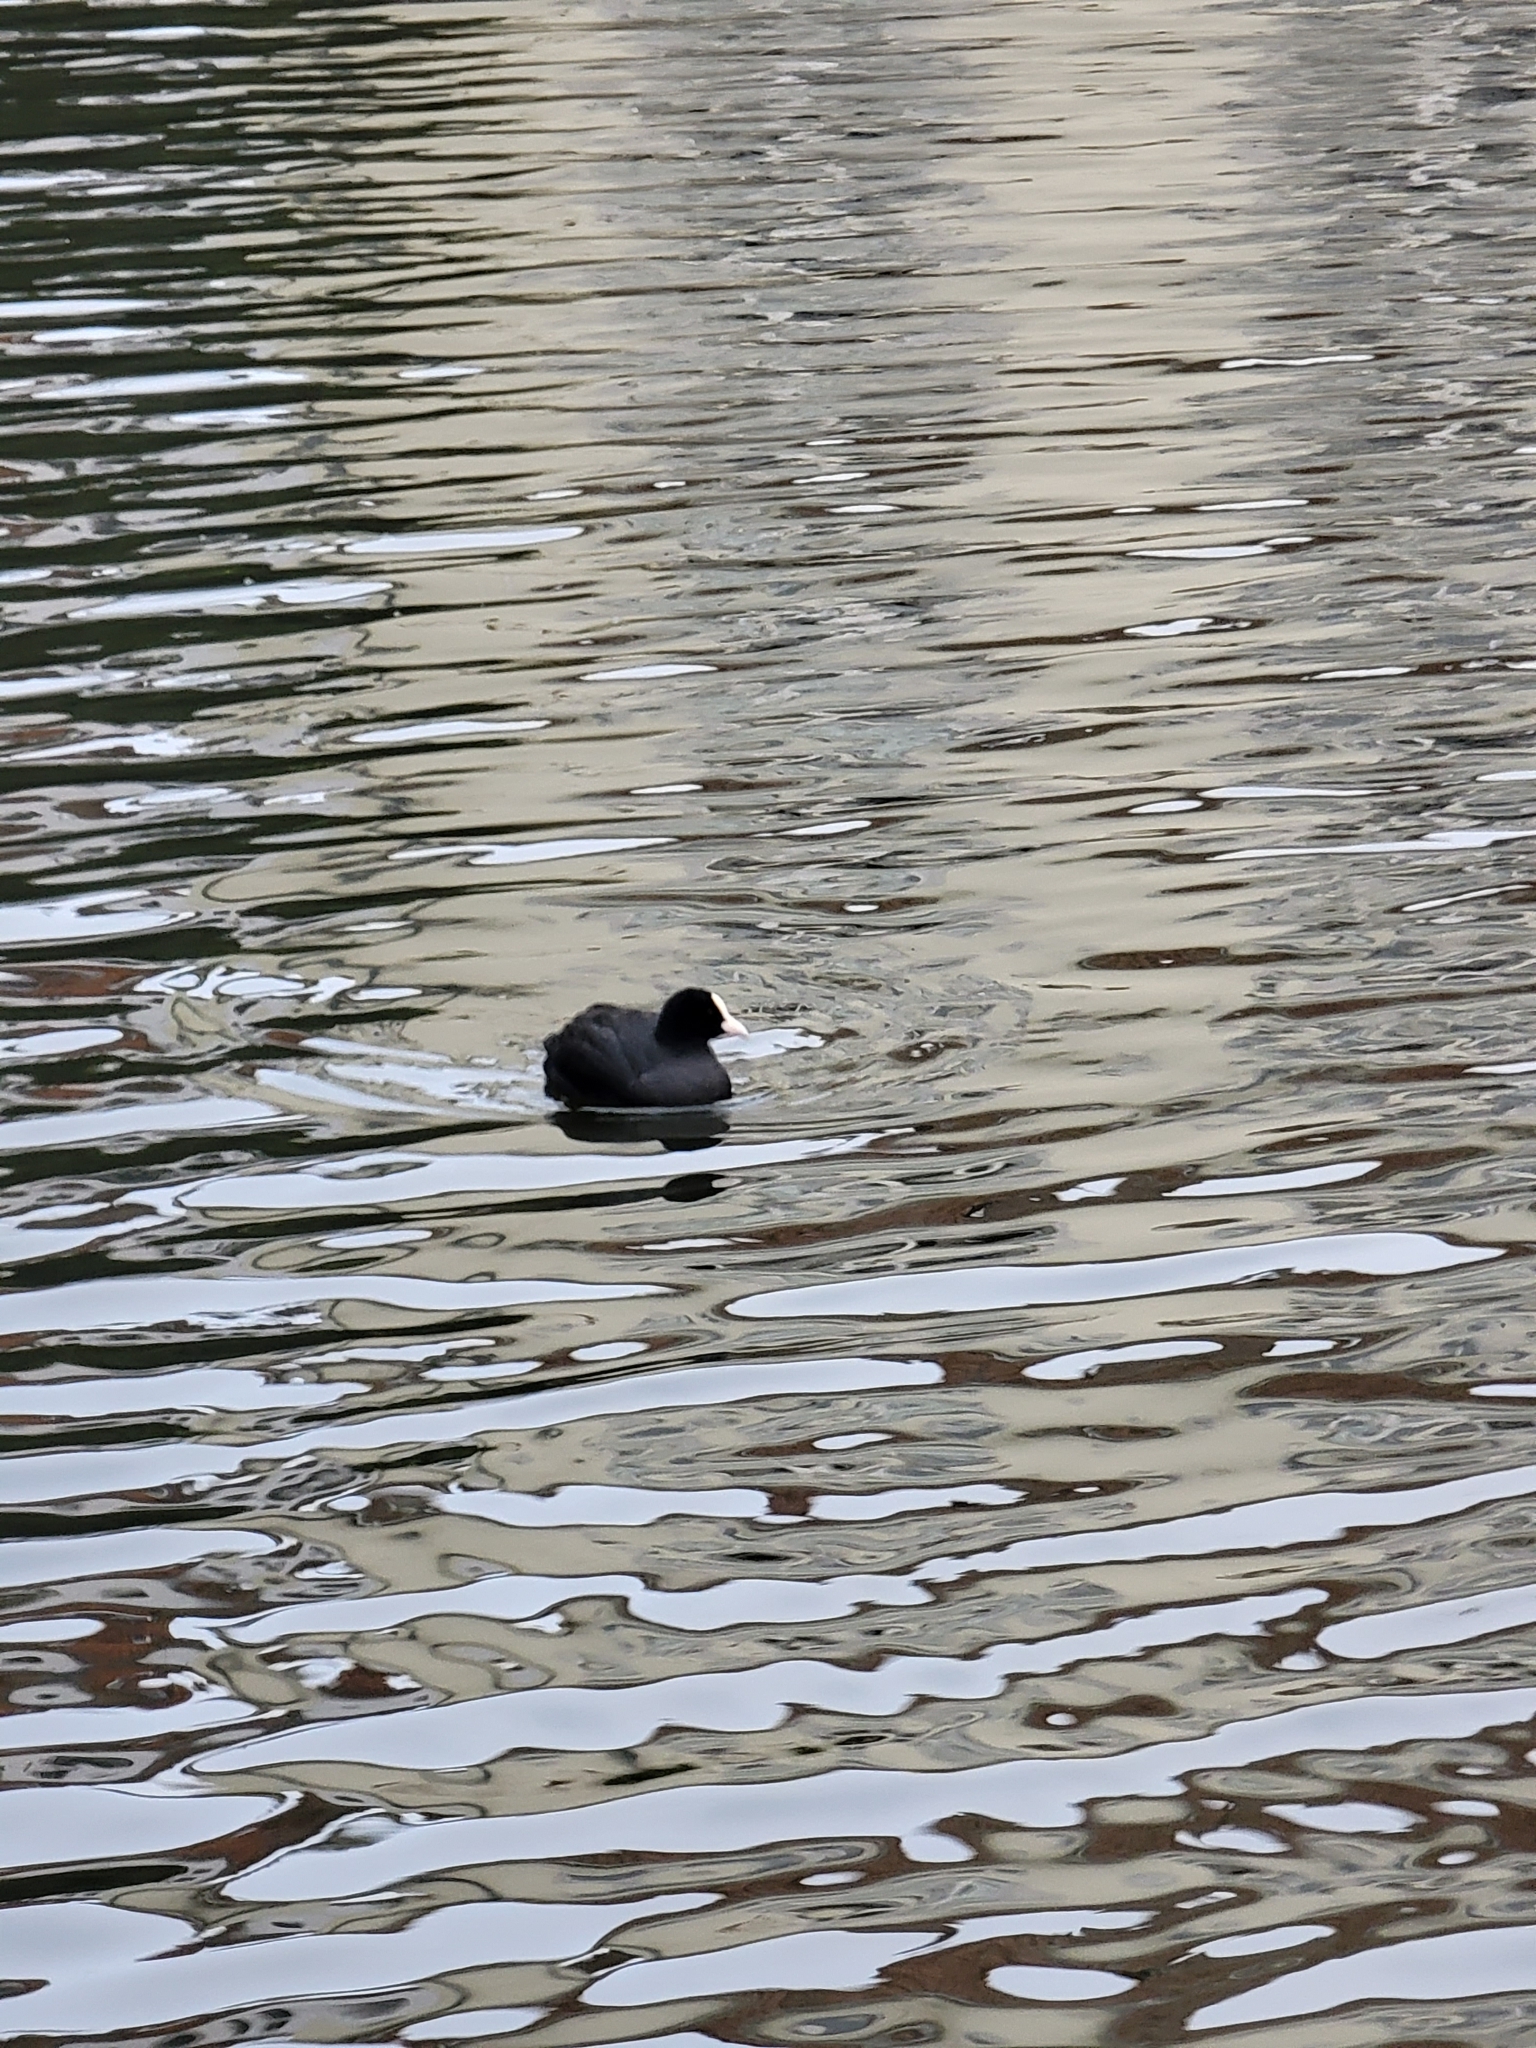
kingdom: Animalia
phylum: Chordata
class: Aves
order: Gruiformes
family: Rallidae
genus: Fulica
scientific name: Fulica atra
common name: Eurasian coot
